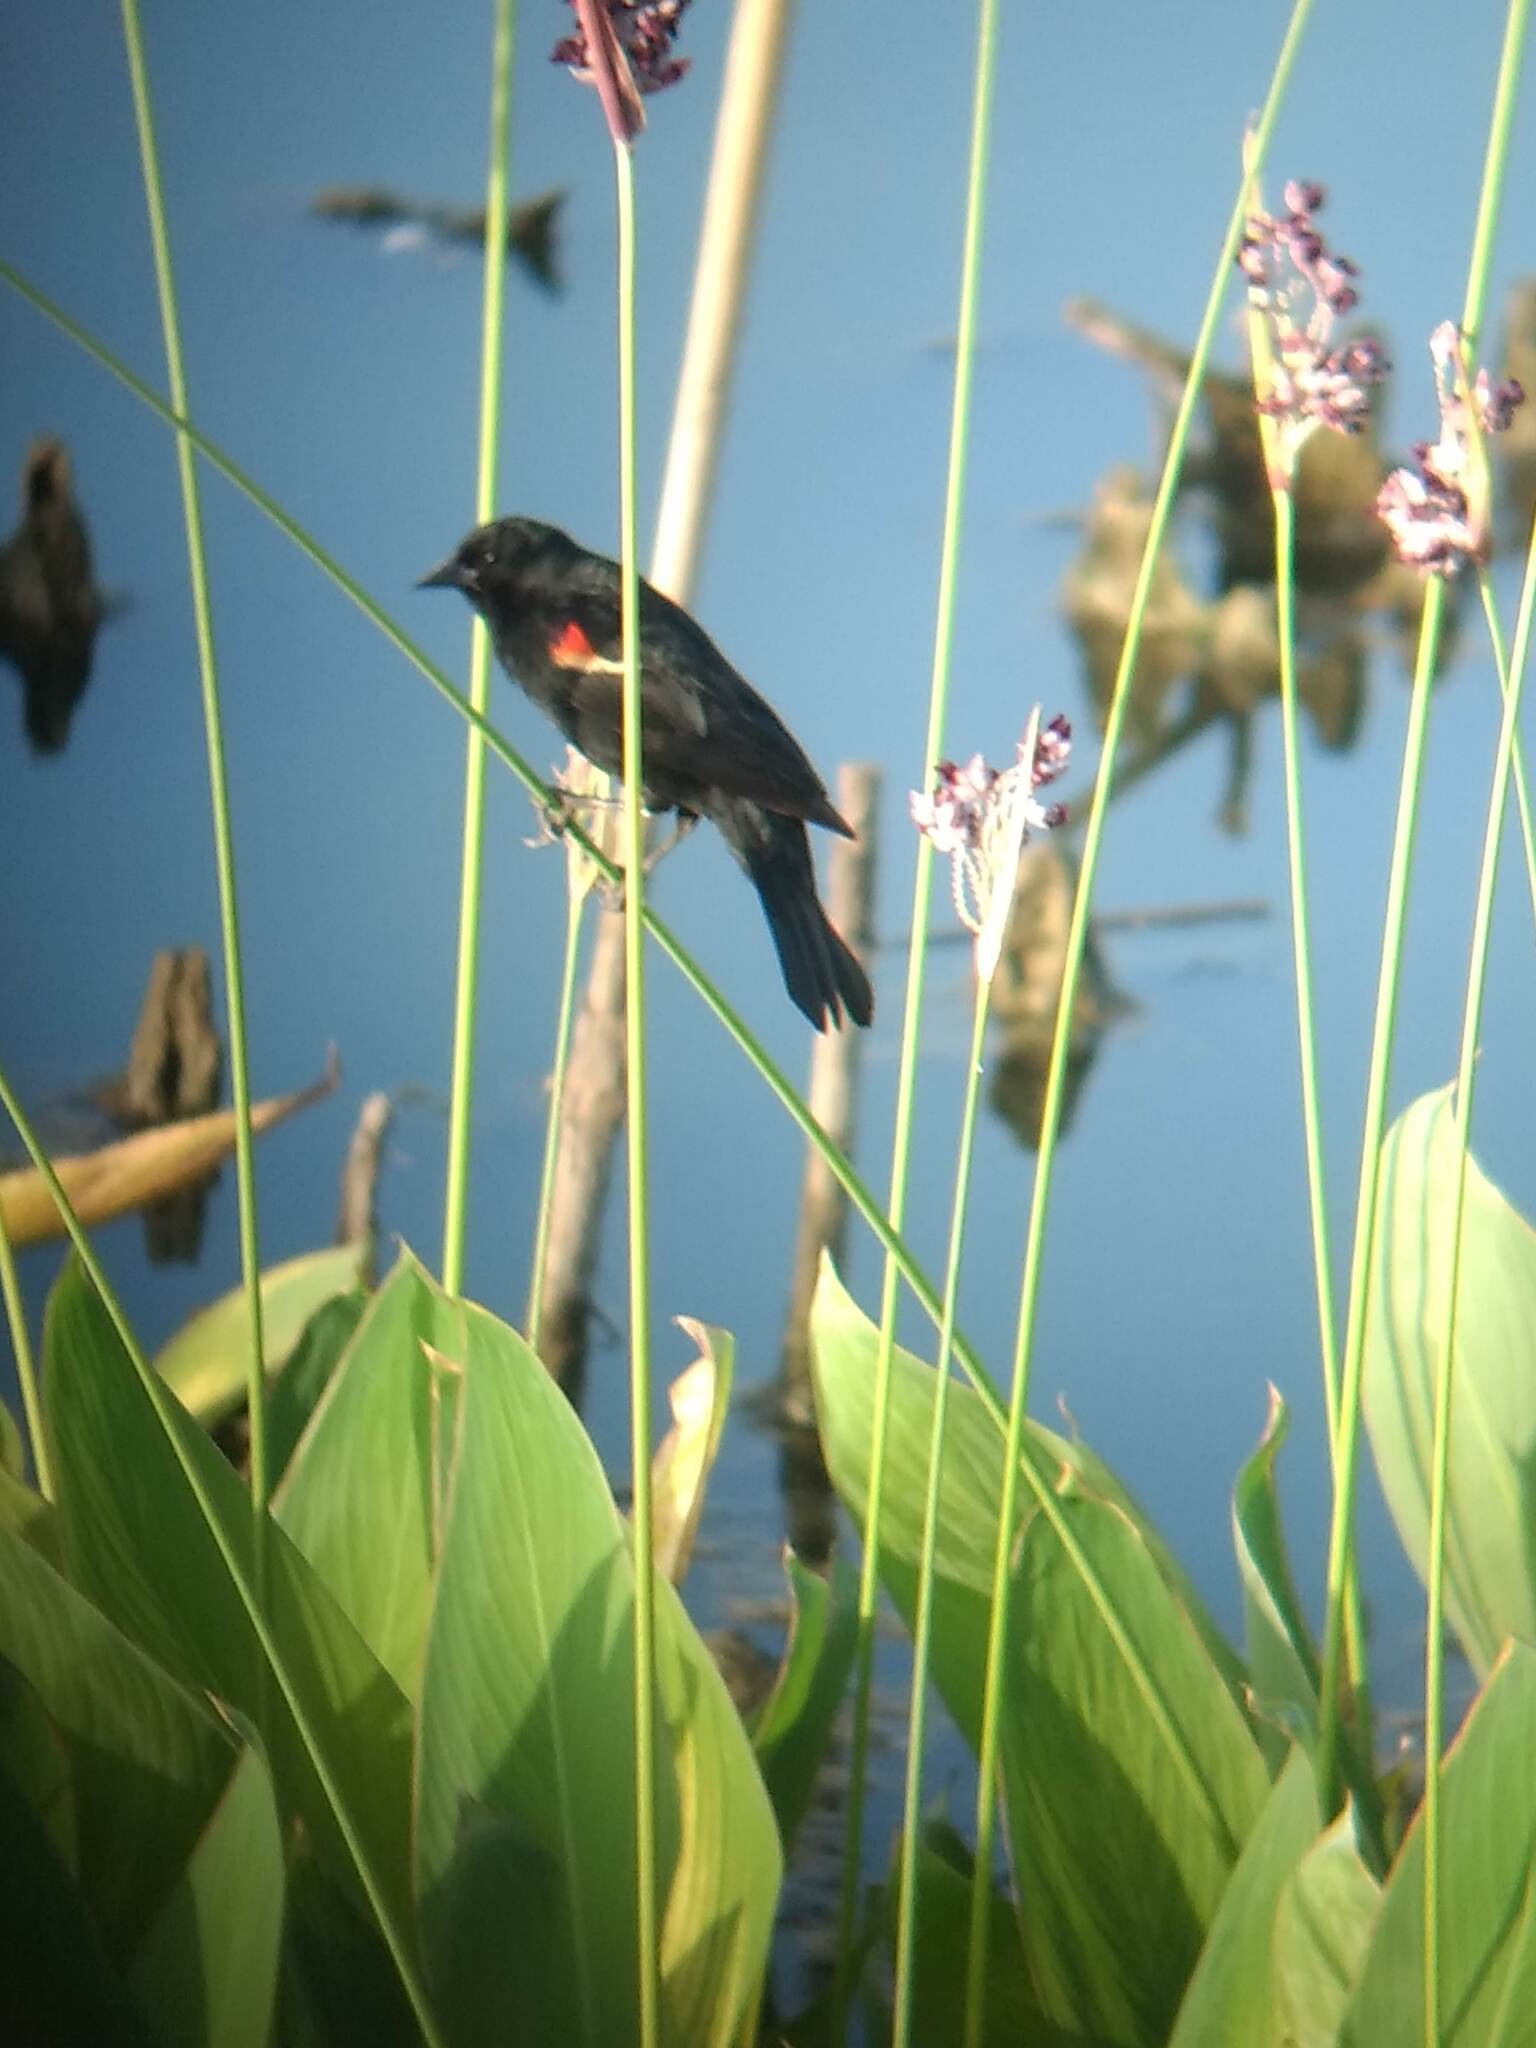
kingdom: Animalia
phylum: Chordata
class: Aves
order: Passeriformes
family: Icteridae
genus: Agelaius
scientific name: Agelaius phoeniceus
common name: Red-winged blackbird
